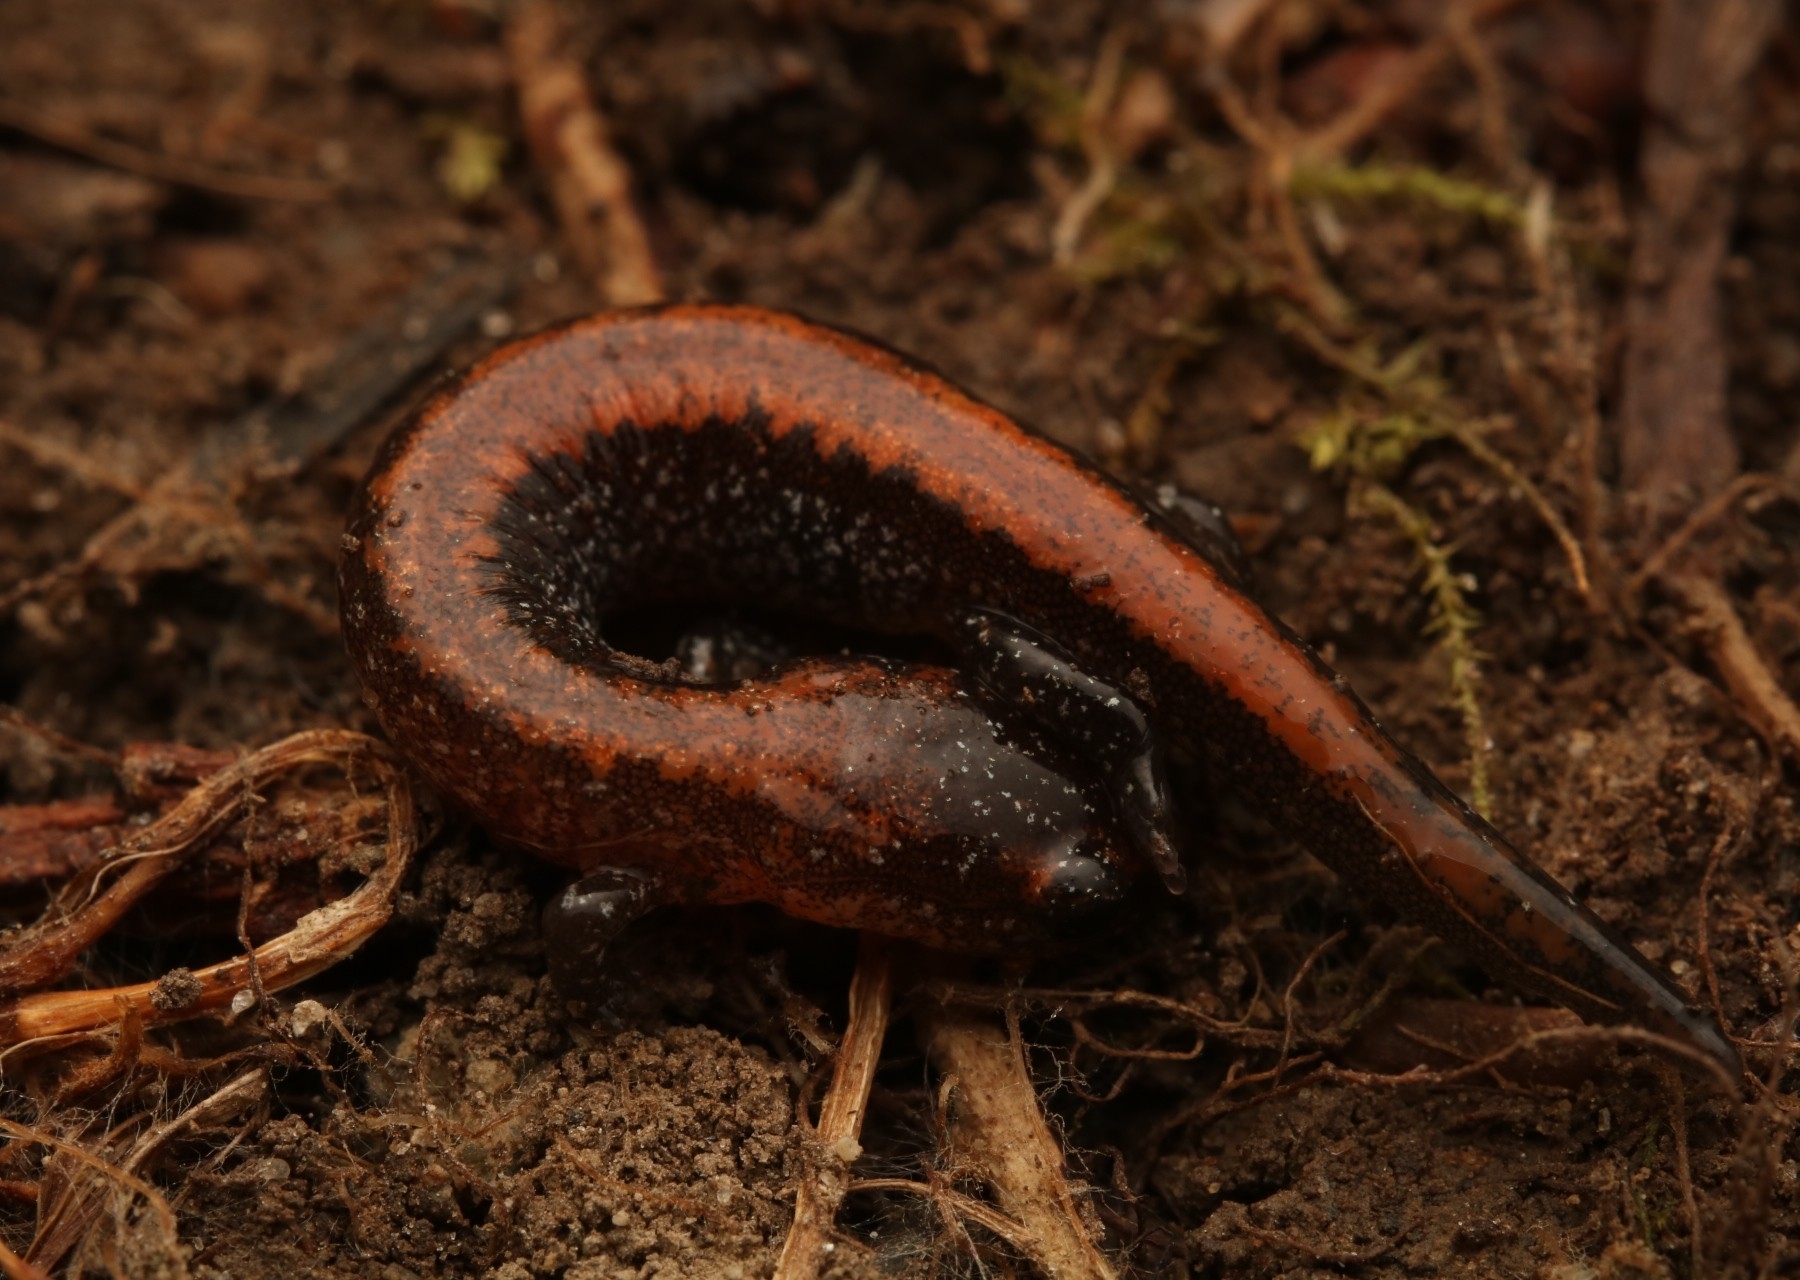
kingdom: Animalia
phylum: Chordata
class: Amphibia
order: Caudata
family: Plethodontidae
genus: Plethodon
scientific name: Plethodon cinereus
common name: Redback salamander
